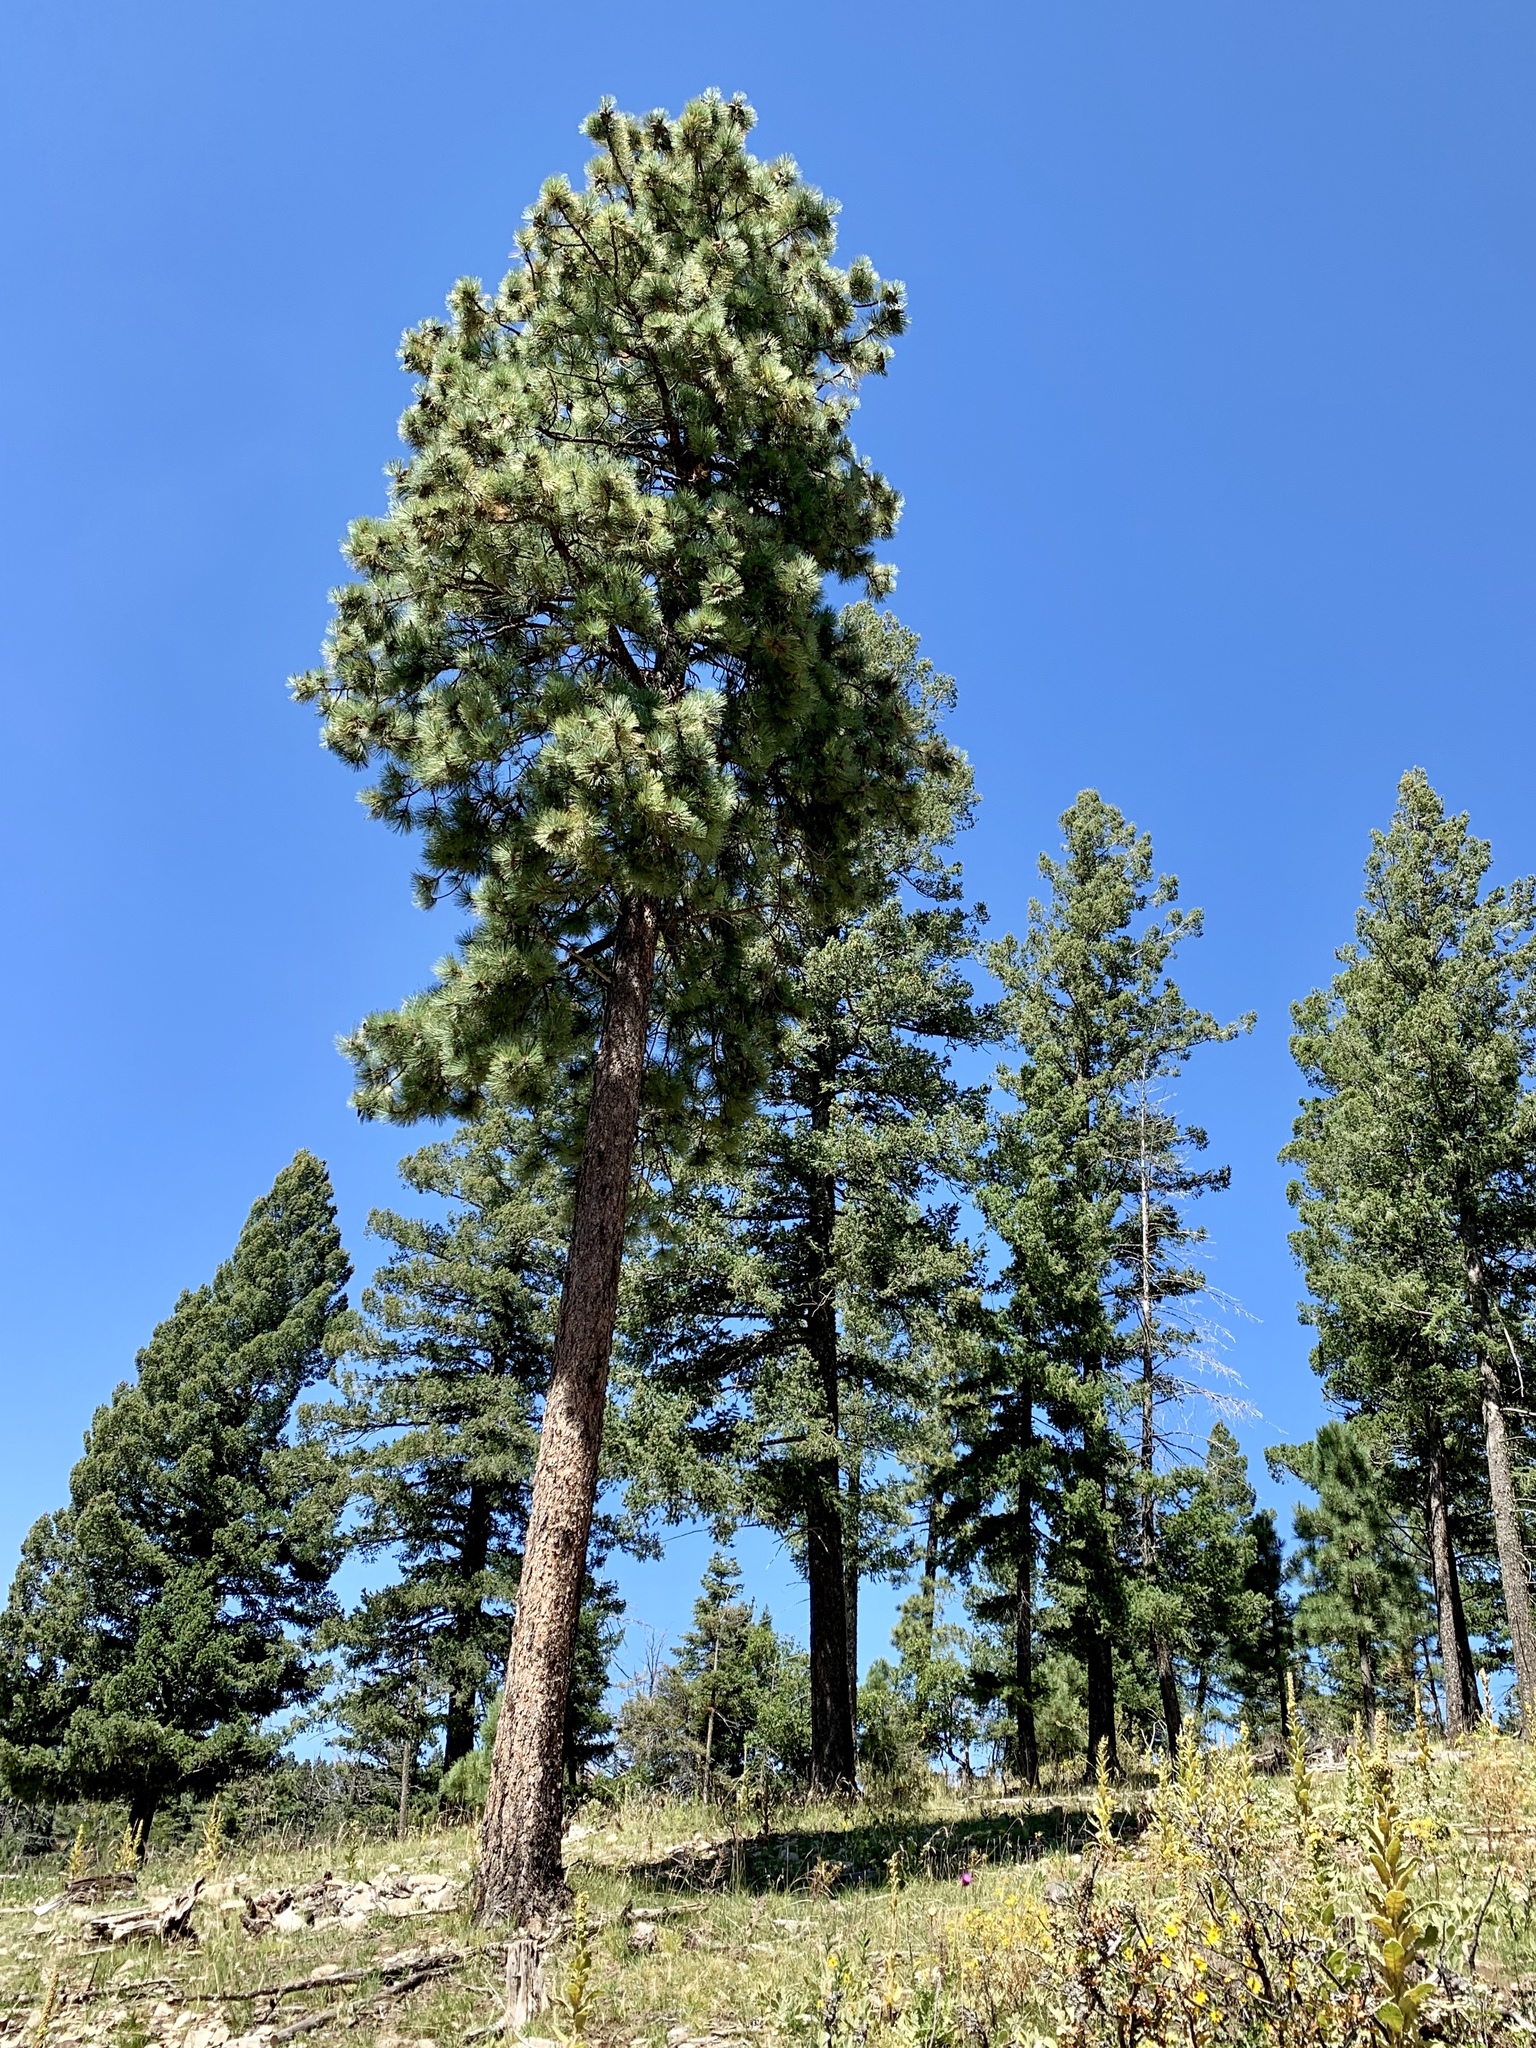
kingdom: Plantae
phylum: Tracheophyta
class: Pinopsida
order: Pinales
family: Pinaceae
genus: Pinus
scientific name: Pinus ponderosa
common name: Western yellow-pine
